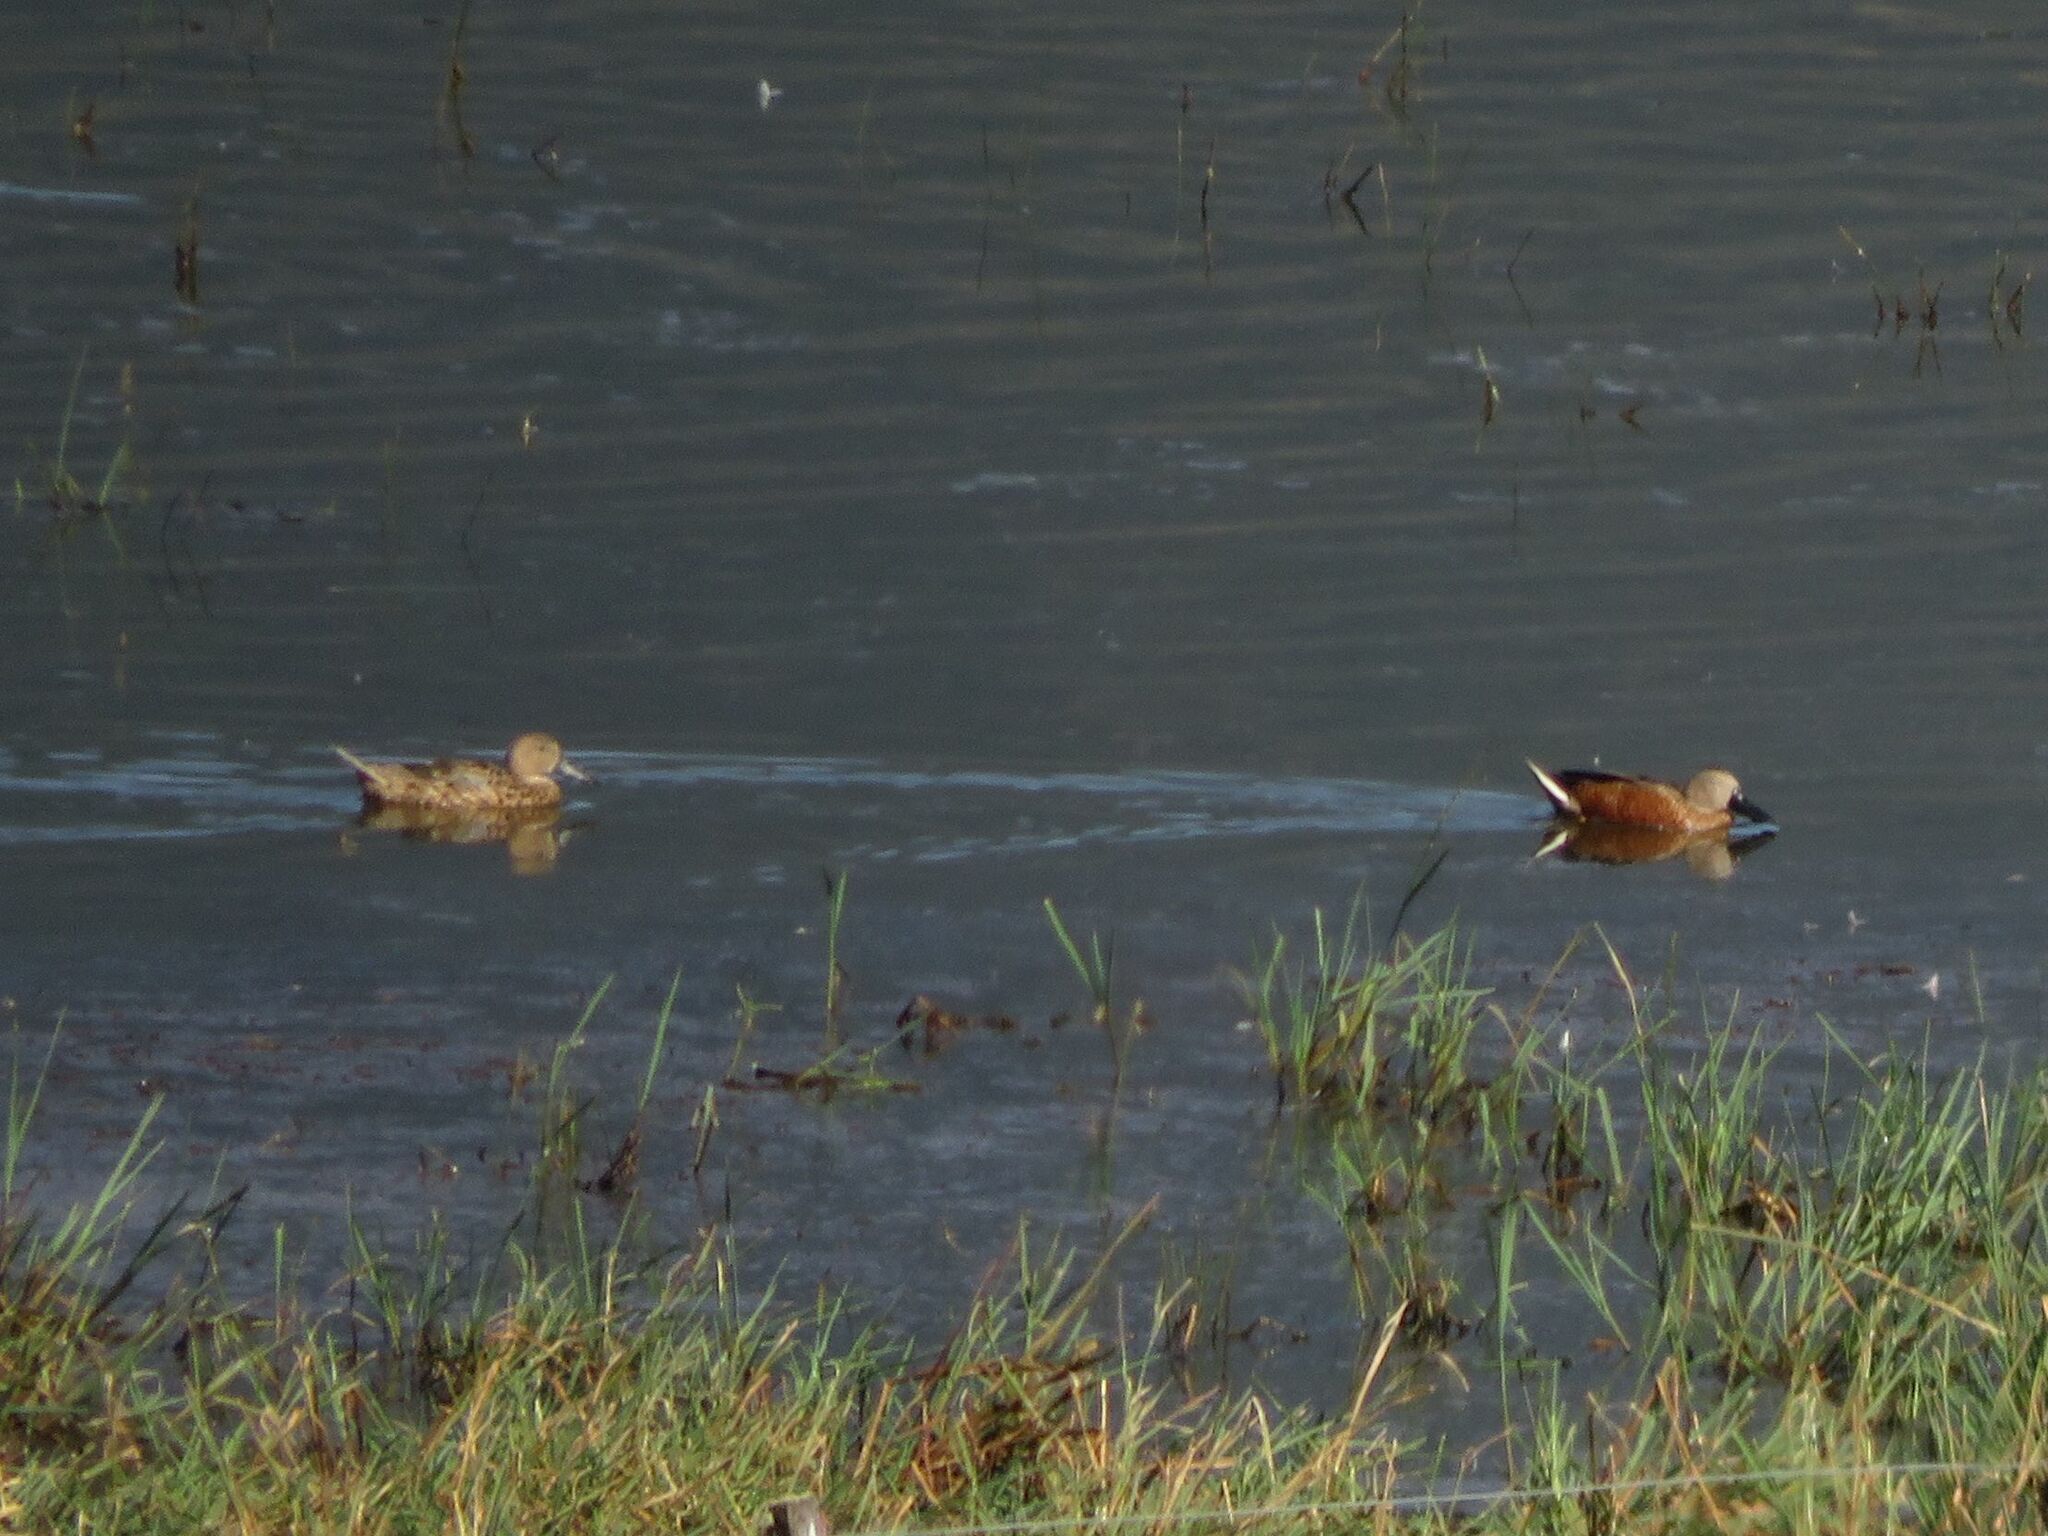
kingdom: Animalia
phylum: Chordata
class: Aves
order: Anseriformes
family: Anatidae
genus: Spatula
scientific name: Spatula platalea
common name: Red shoveler
